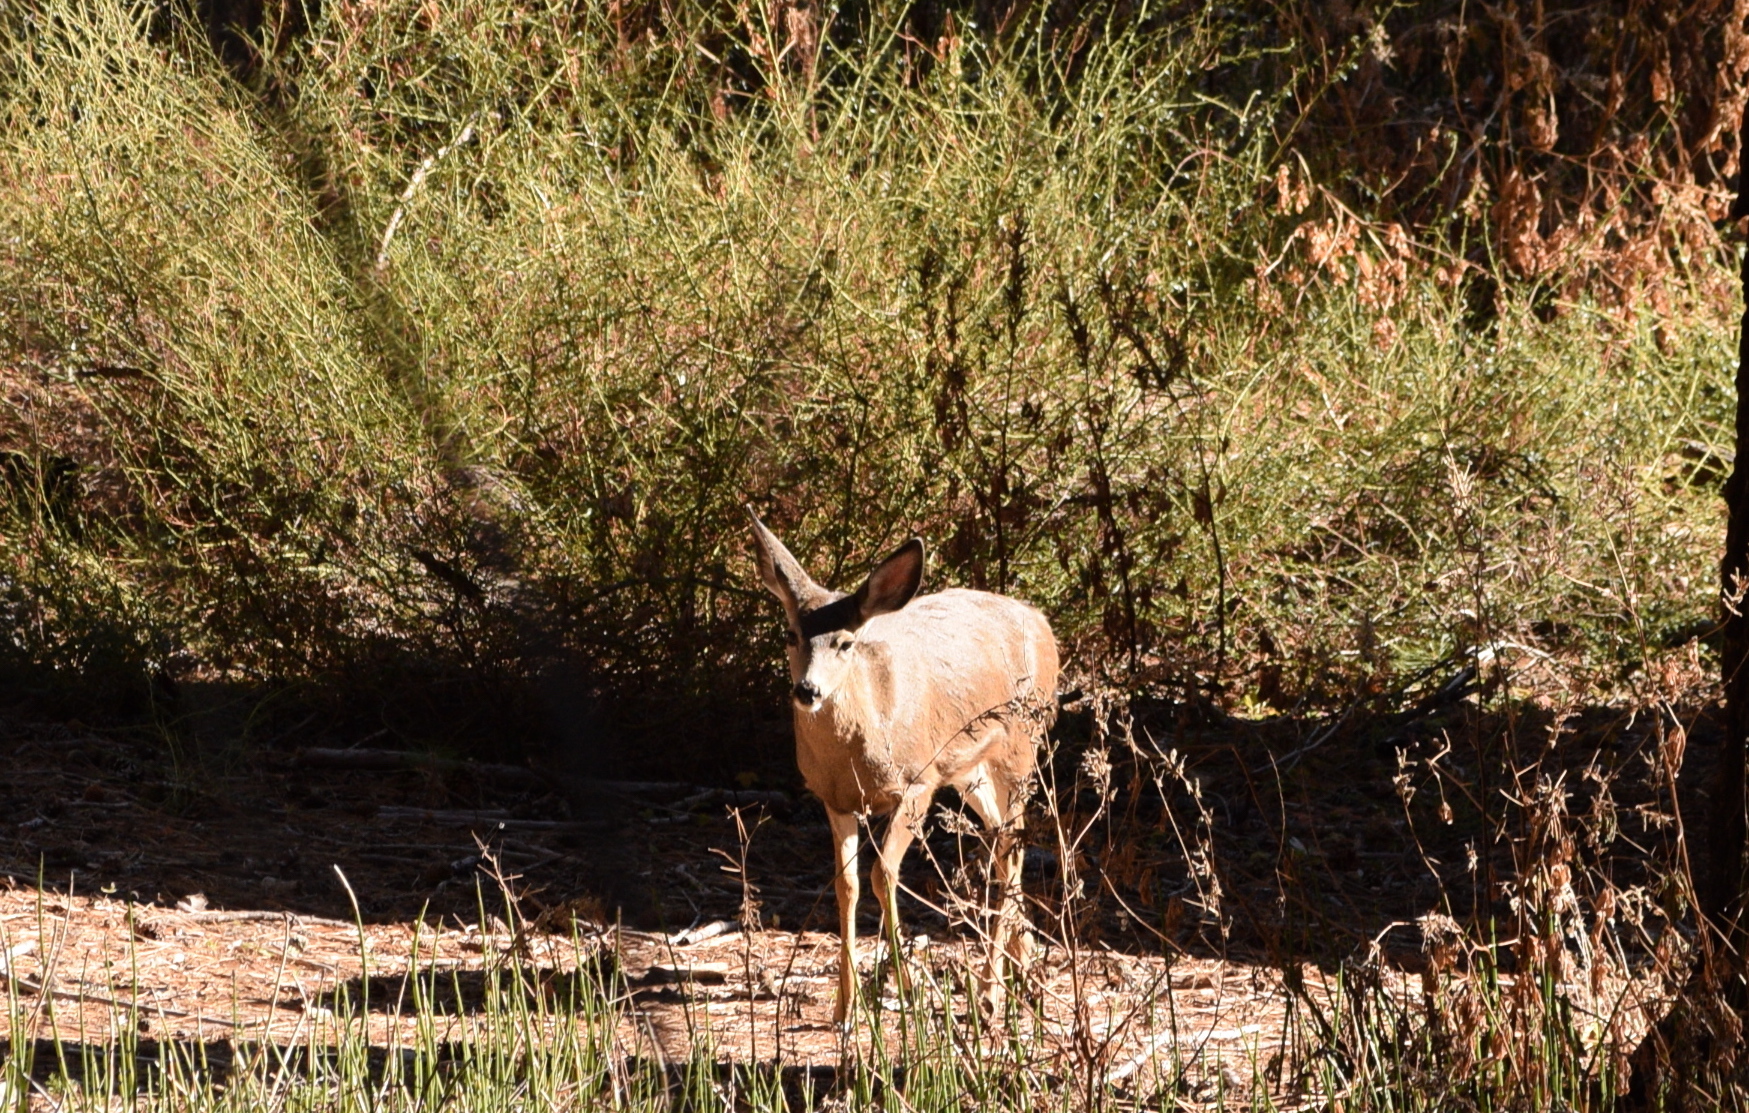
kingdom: Animalia
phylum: Chordata
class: Mammalia
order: Artiodactyla
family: Cervidae
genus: Odocoileus
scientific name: Odocoileus hemionus
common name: Mule deer
